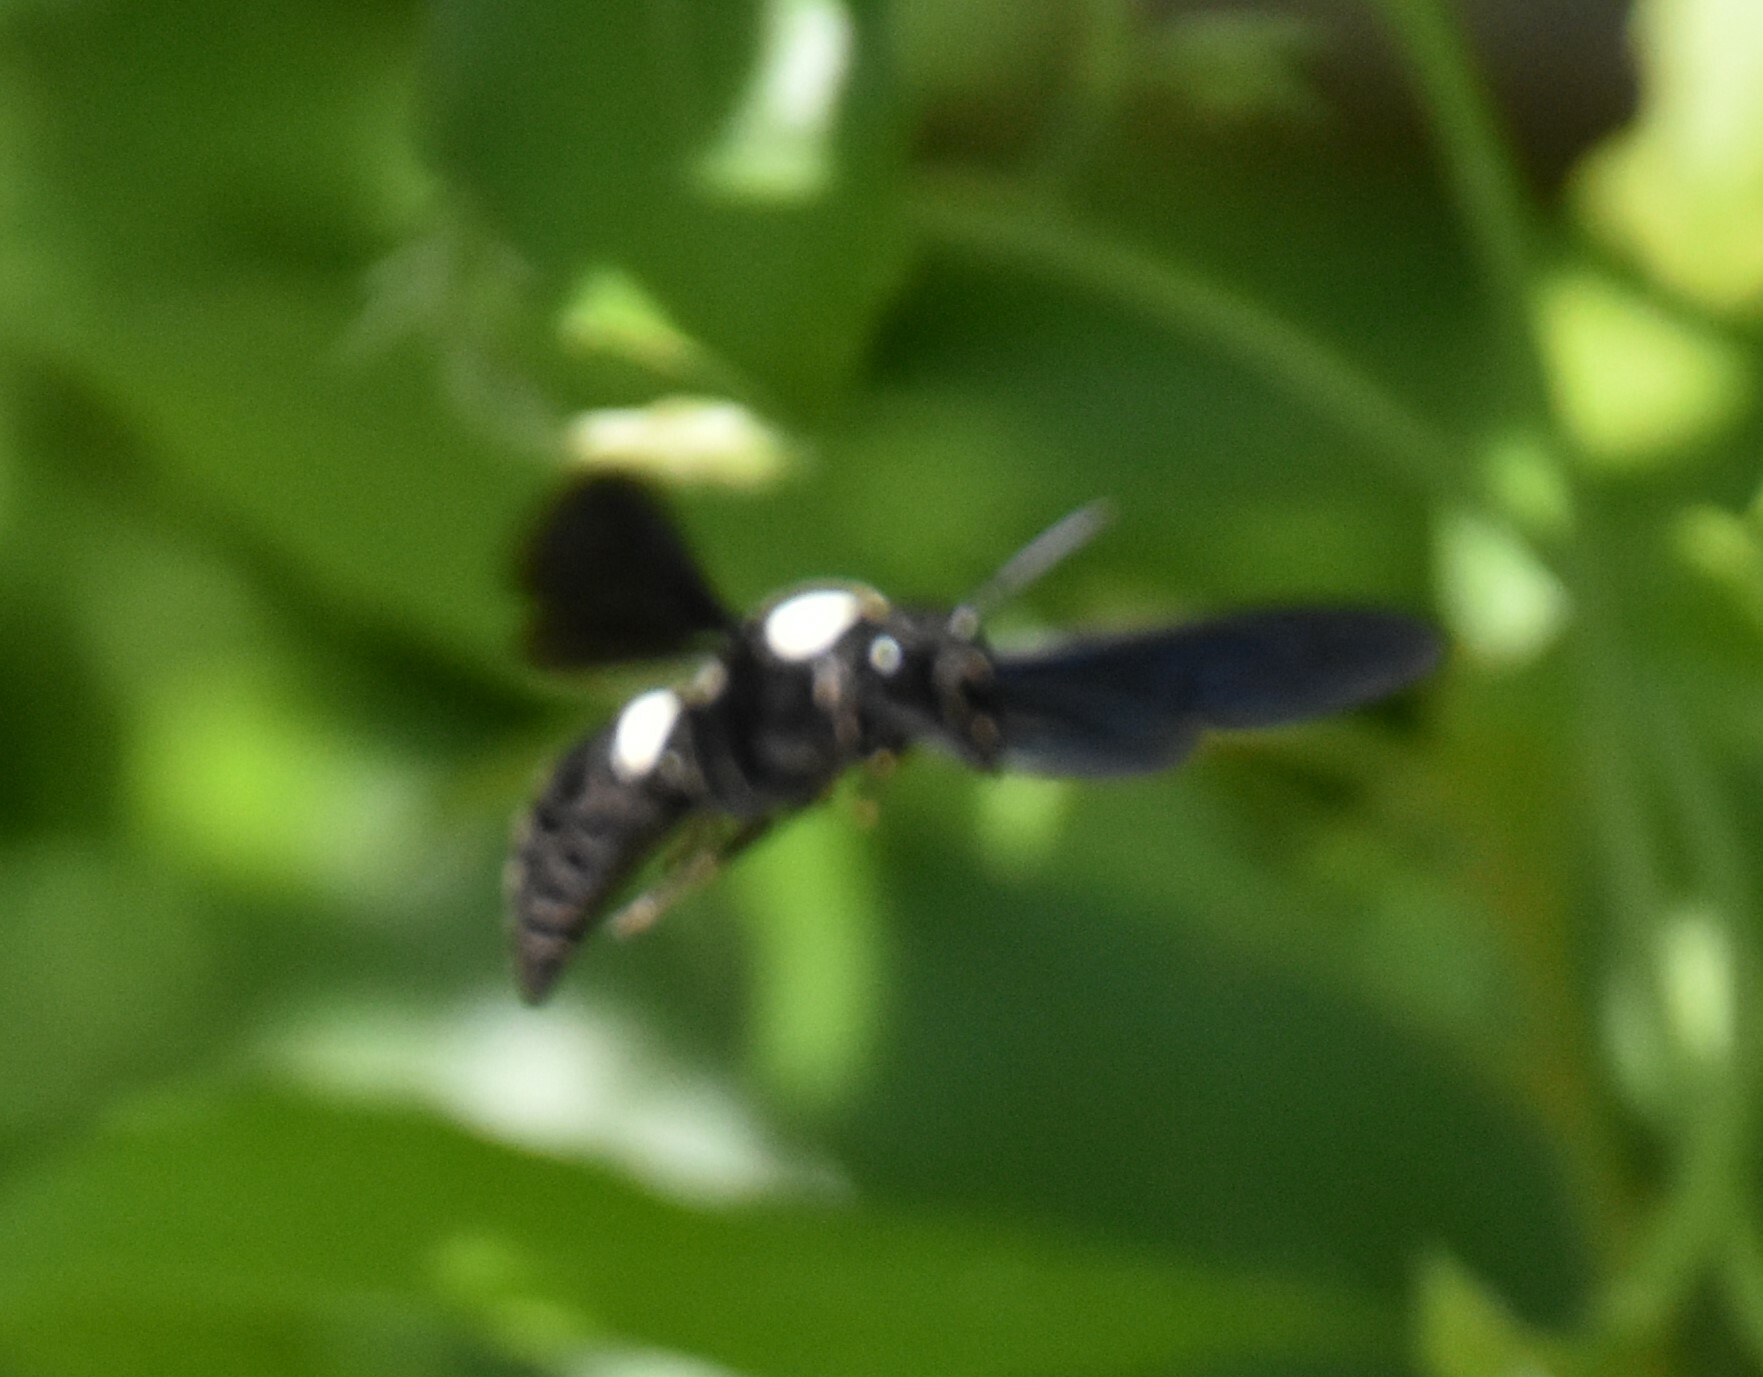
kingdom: Animalia
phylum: Arthropoda
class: Insecta
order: Hymenoptera
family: Eumenidae
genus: Monobia
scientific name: Monobia quadridens
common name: Four-toothed mason wasp
